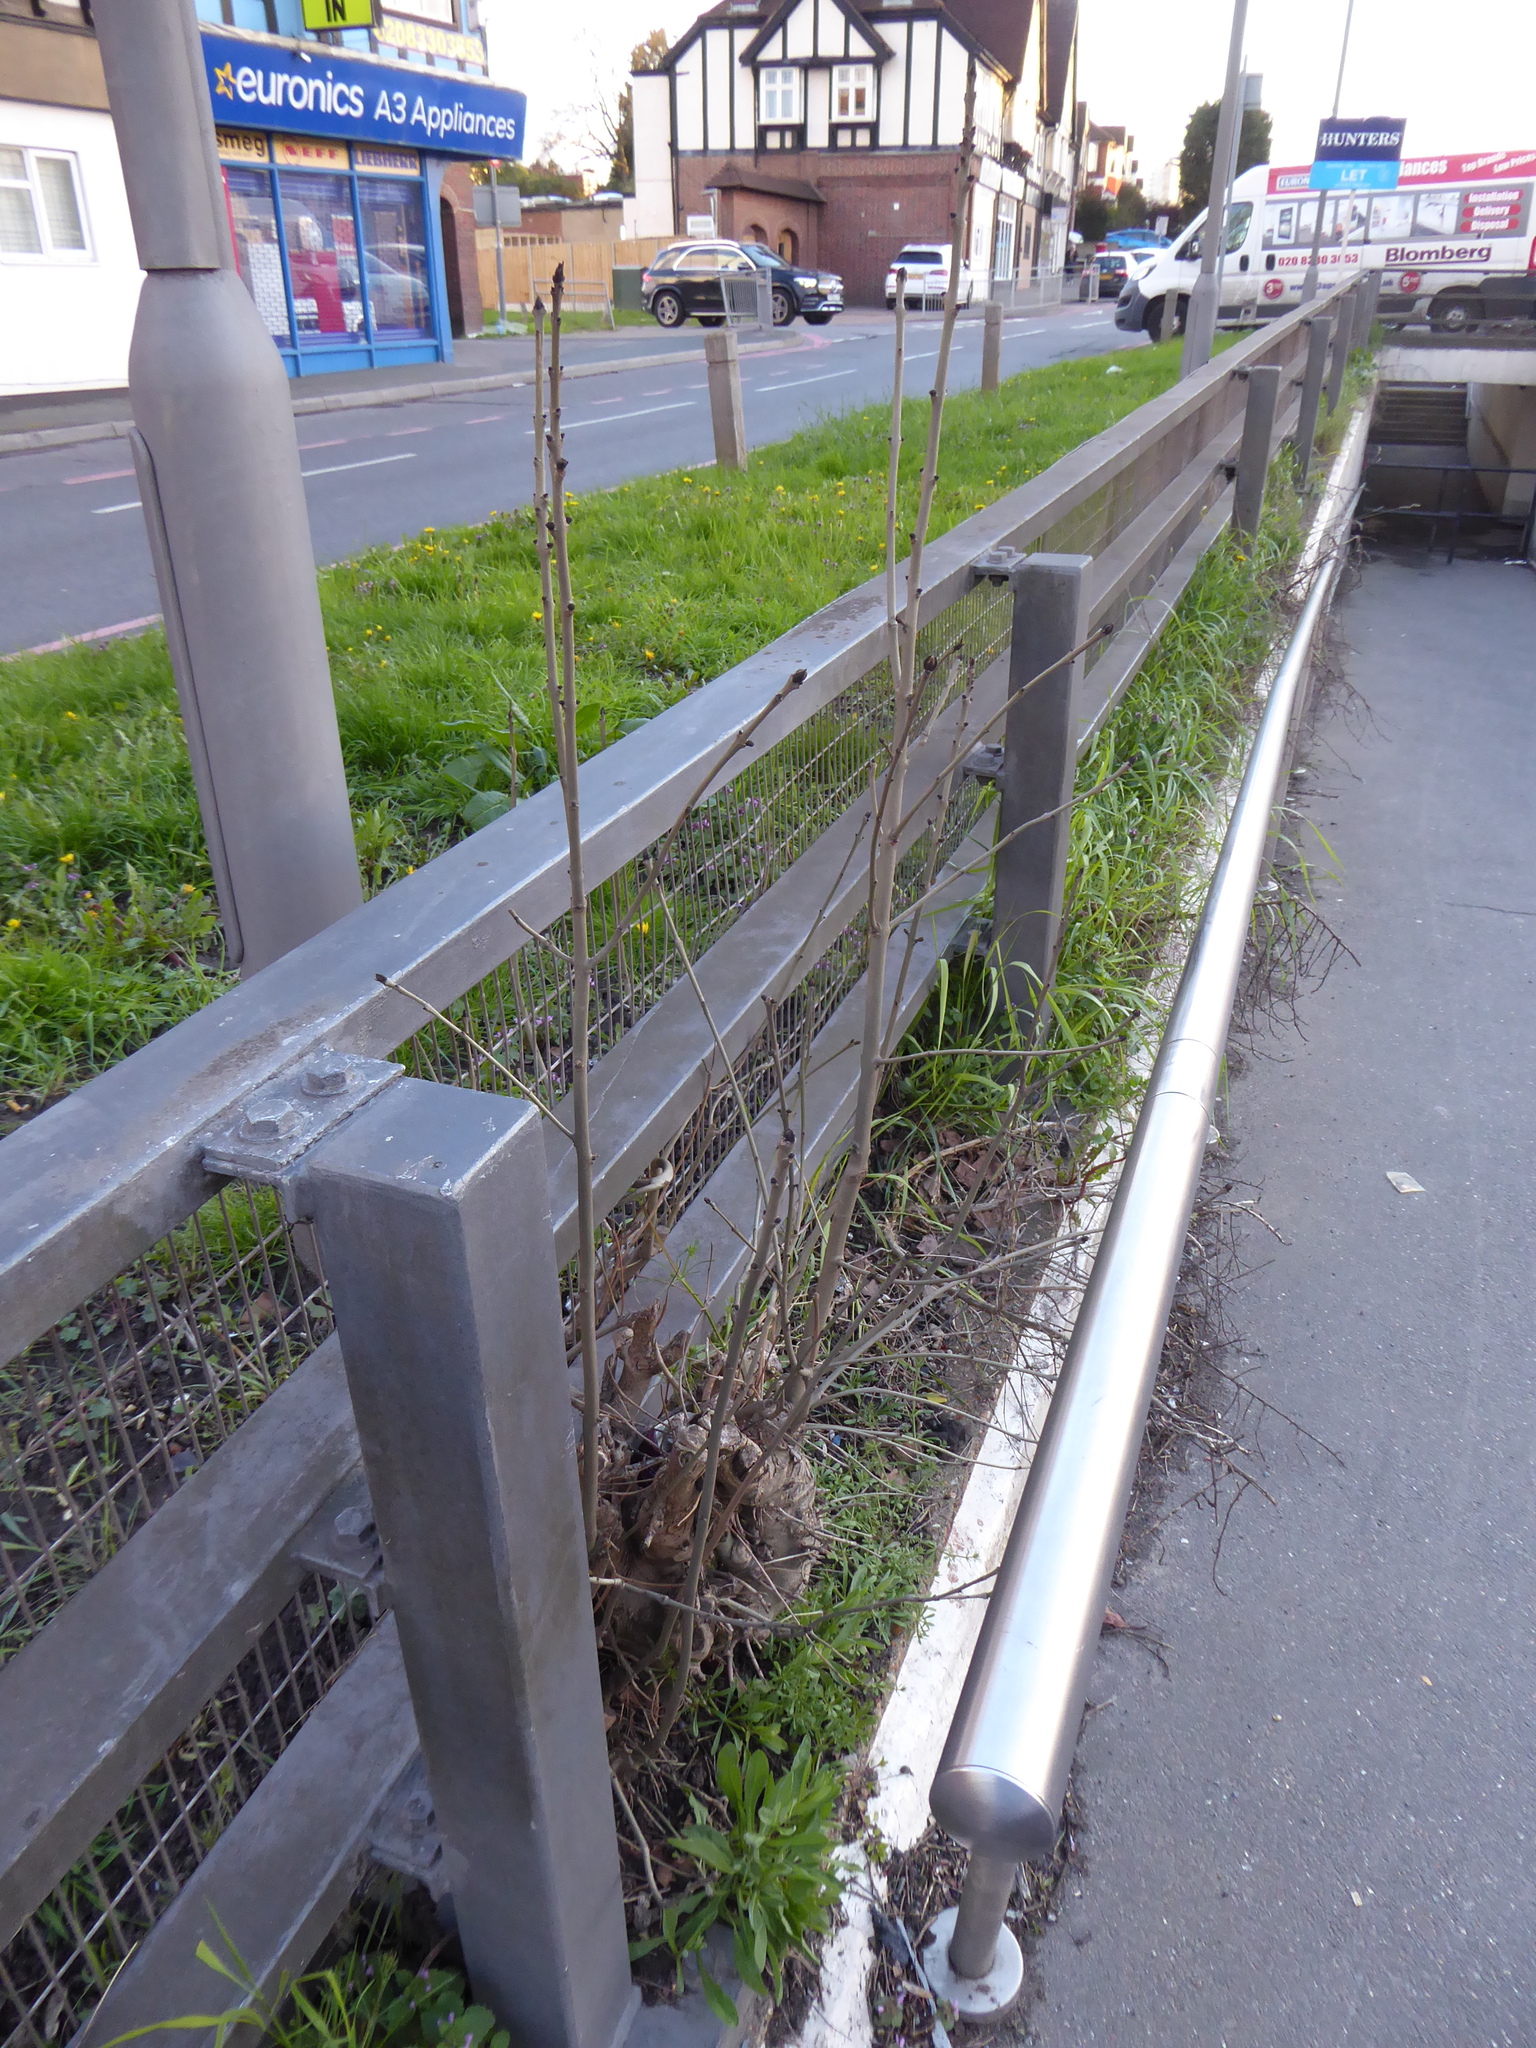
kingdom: Plantae
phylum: Tracheophyta
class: Magnoliopsida
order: Lamiales
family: Oleaceae
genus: Fraxinus
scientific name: Fraxinus excelsior
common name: European ash
